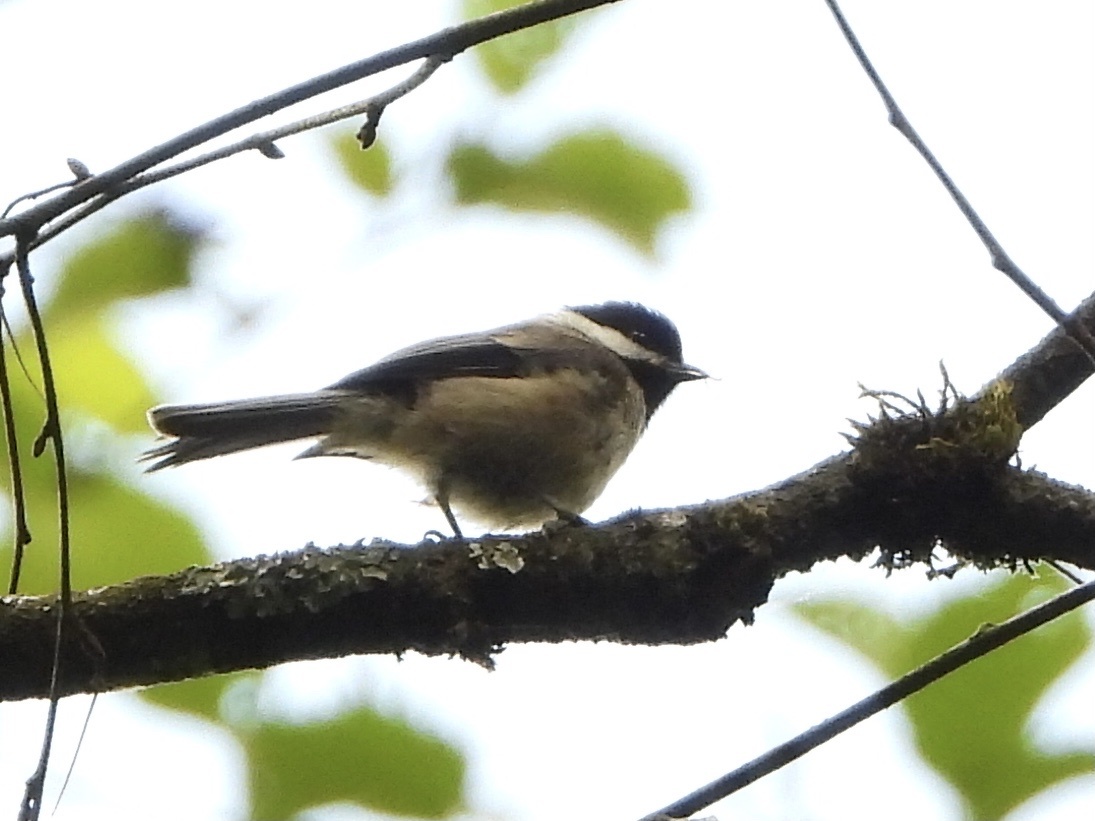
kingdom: Animalia
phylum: Chordata
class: Aves
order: Passeriformes
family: Paridae
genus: Poecile
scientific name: Poecile atricapillus
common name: Black-capped chickadee
